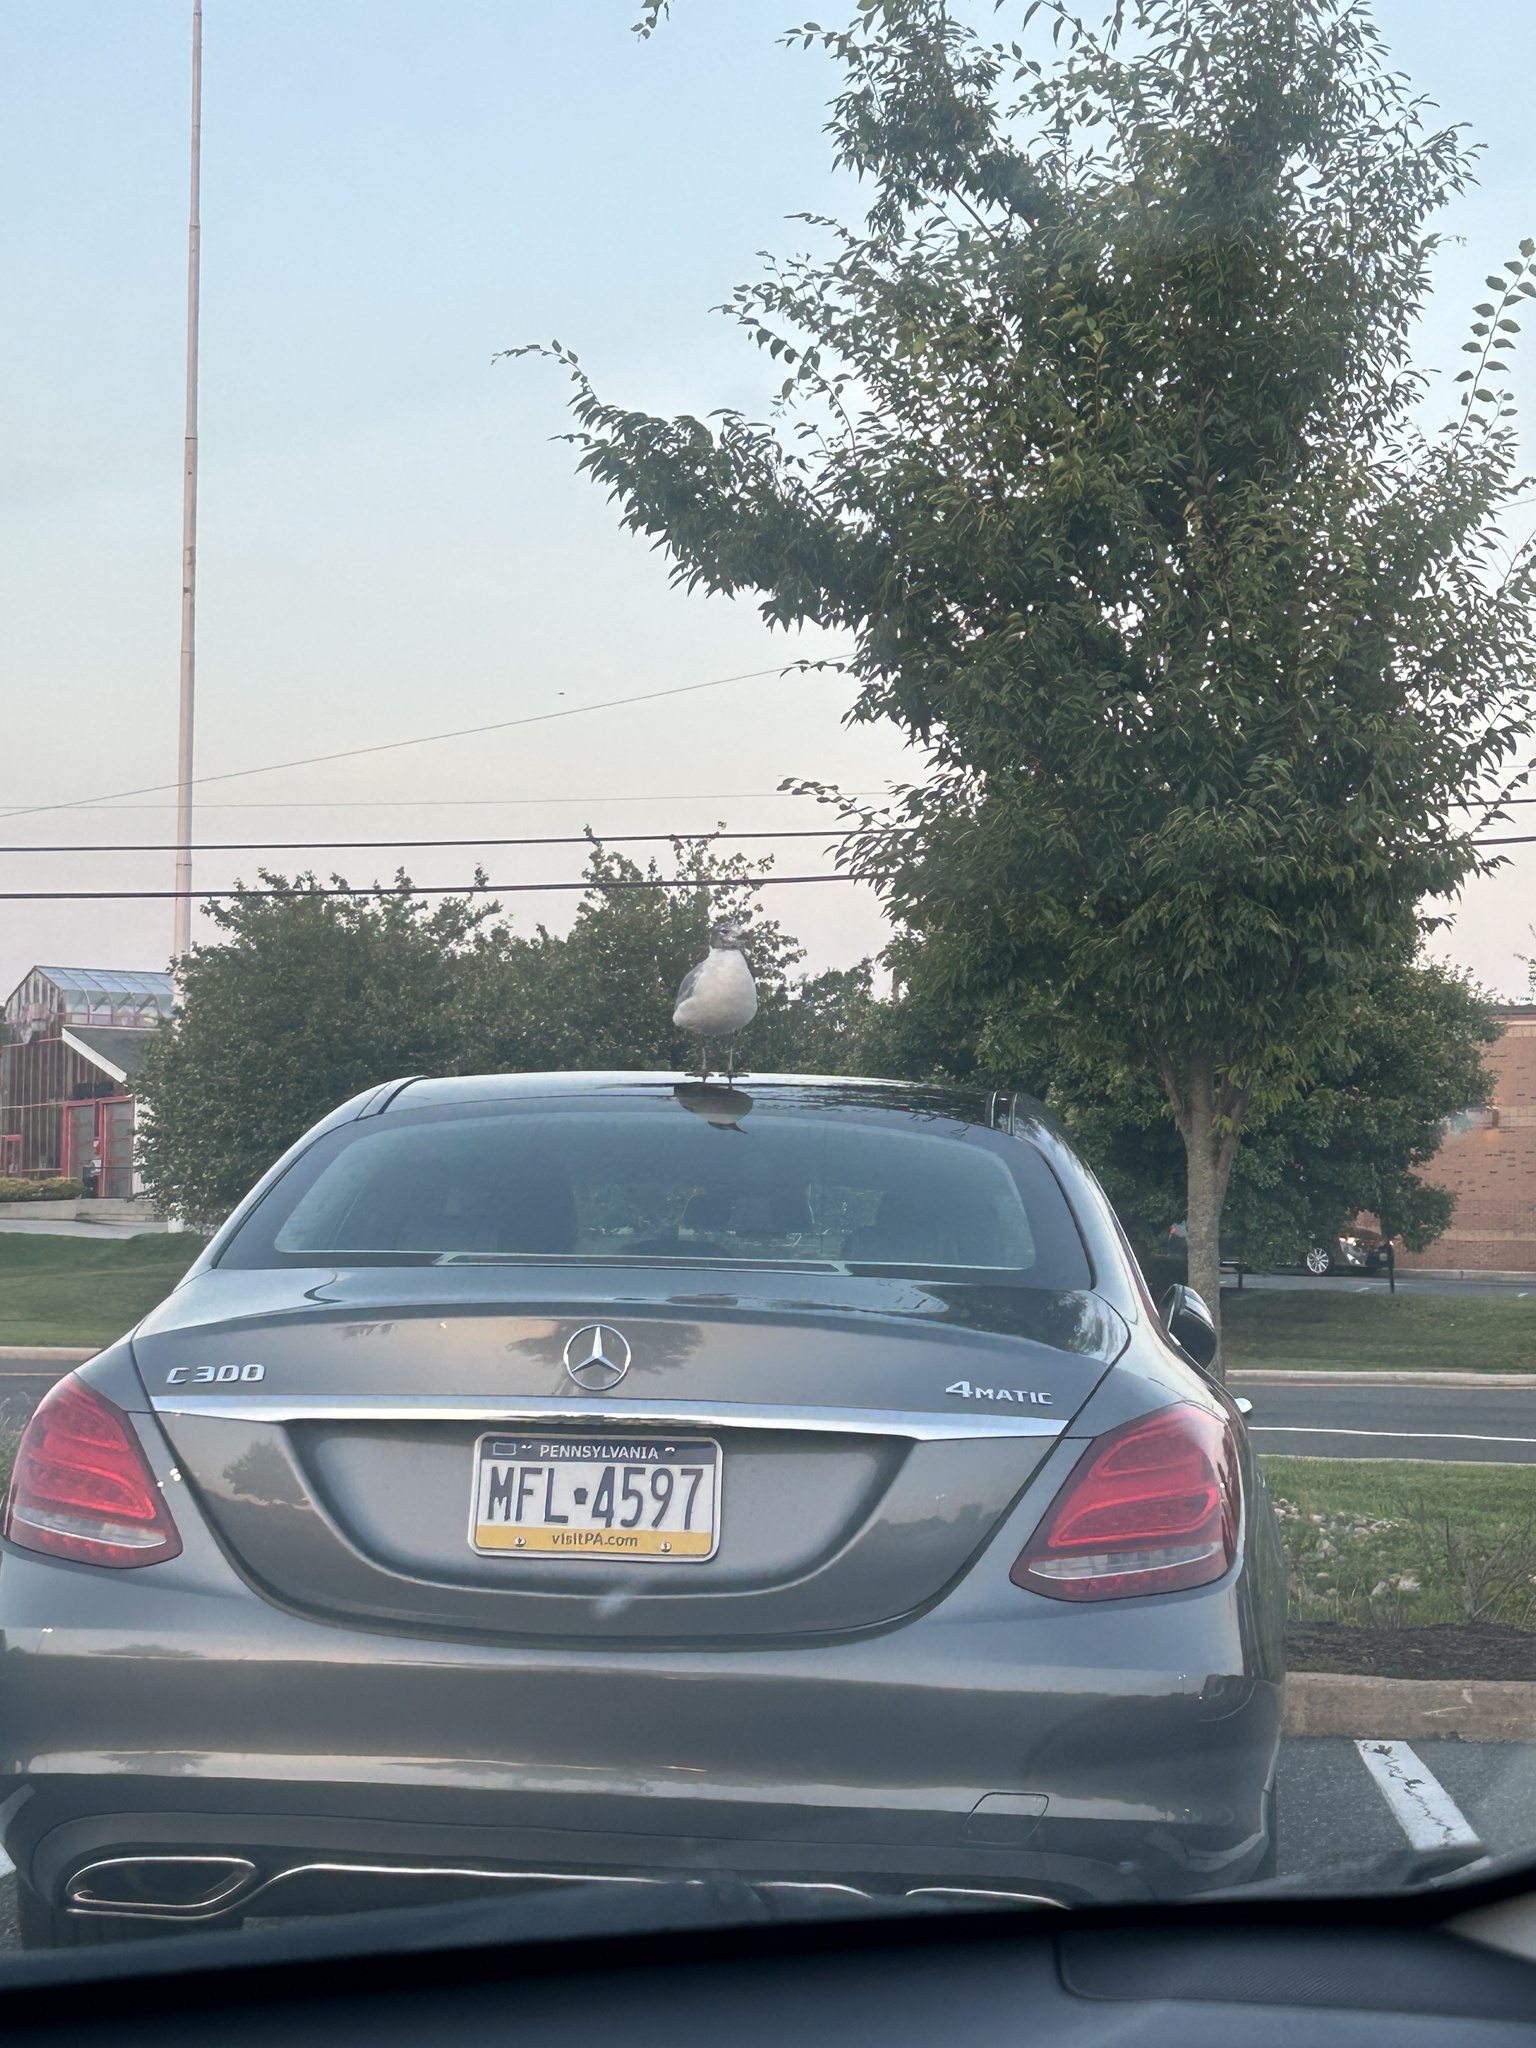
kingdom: Animalia
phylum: Chordata
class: Aves
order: Charadriiformes
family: Laridae
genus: Leucophaeus
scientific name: Leucophaeus atricilla
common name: Laughing gull
